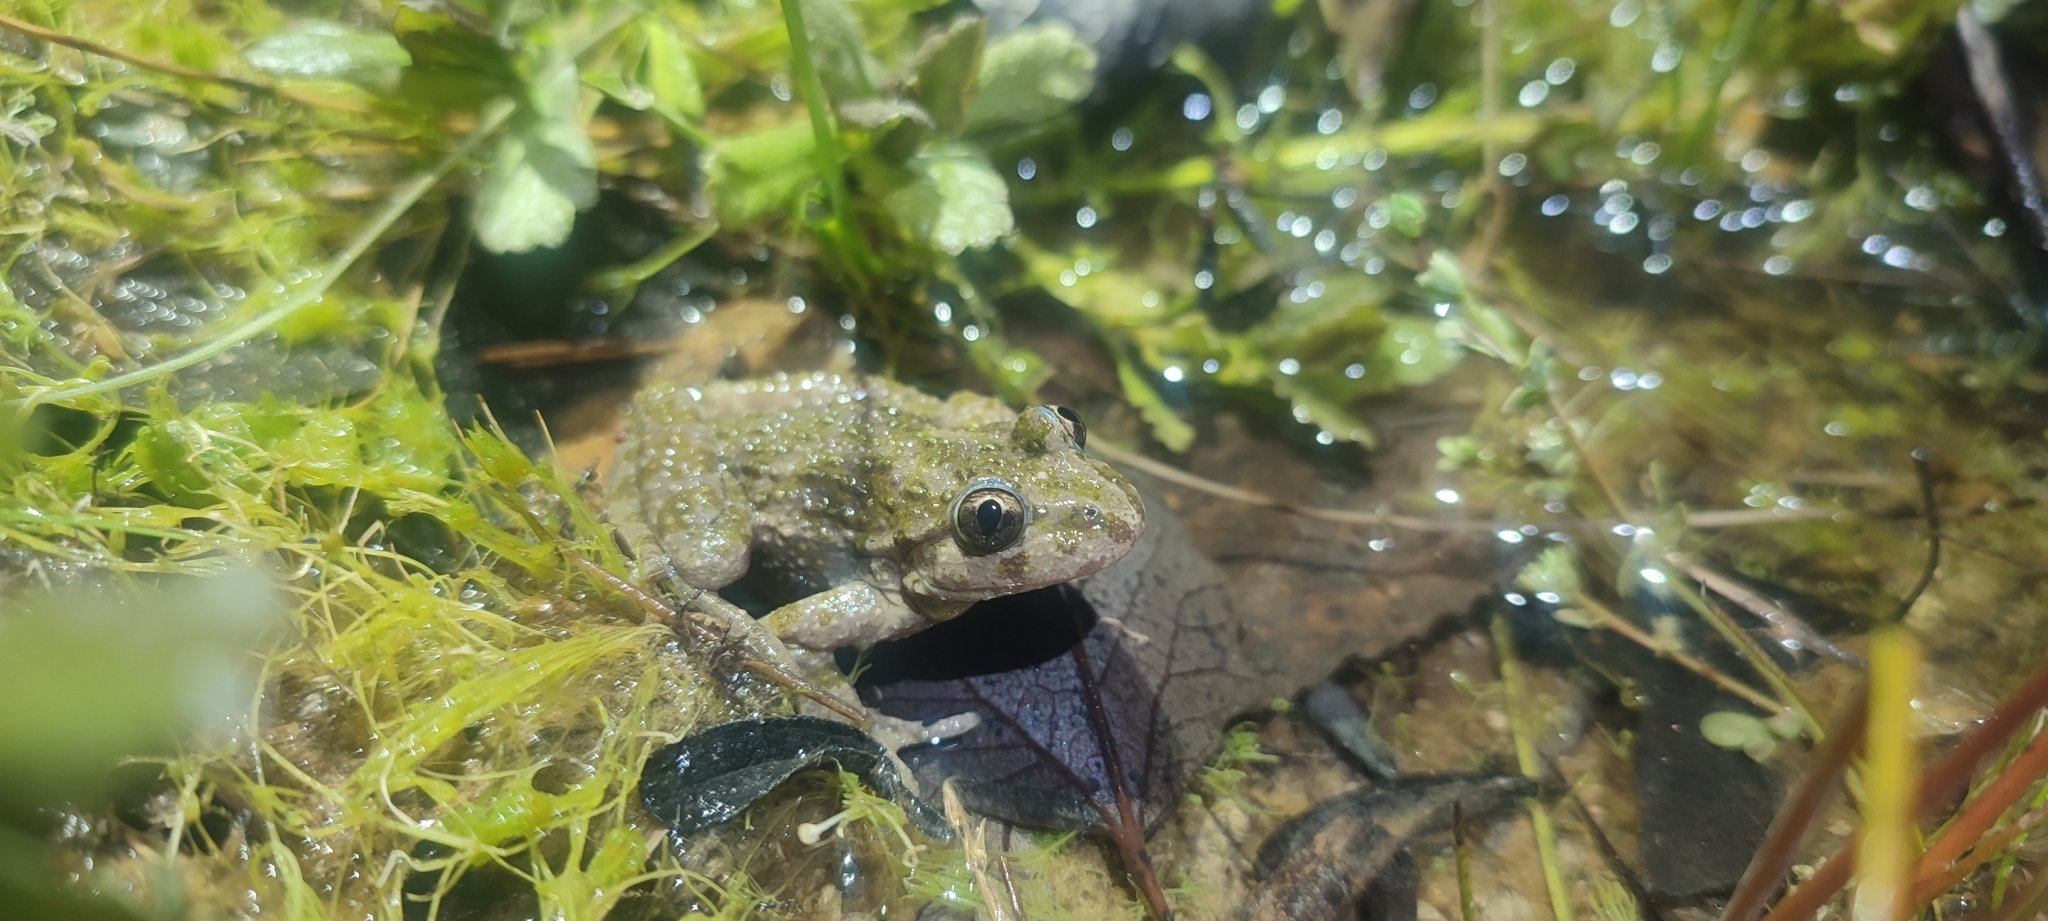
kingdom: Animalia
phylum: Chordata
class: Amphibia
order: Anura
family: Pelodytidae
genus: Pelodytes
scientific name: Pelodytes punctatus
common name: Parsley frog
